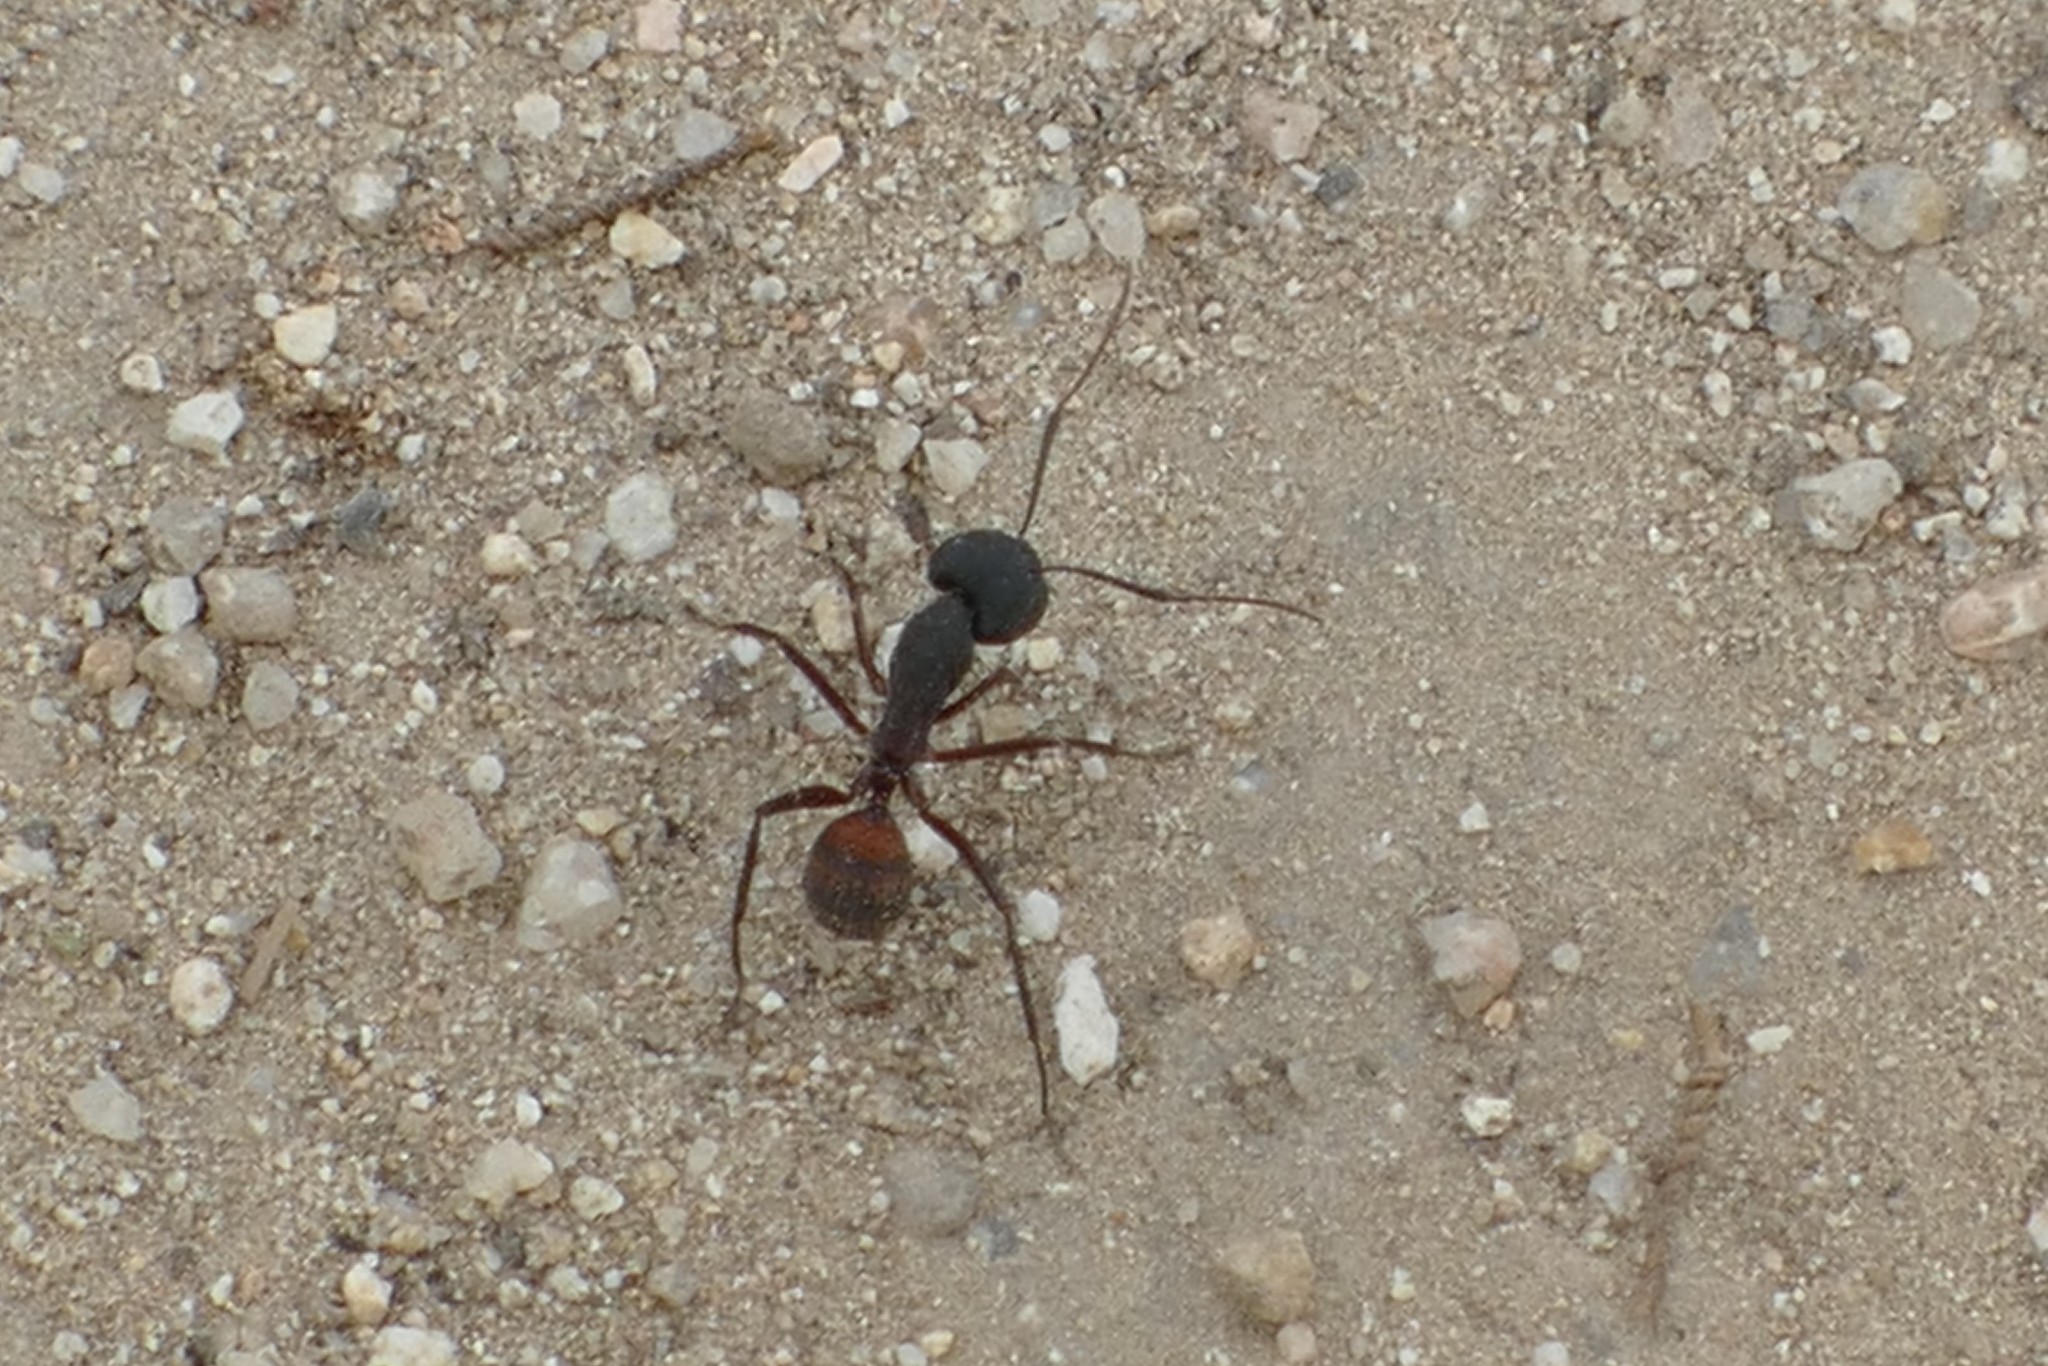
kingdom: Animalia
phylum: Arthropoda
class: Insecta
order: Hymenoptera
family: Formicidae
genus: Camponotus
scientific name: Camponotus cruentatus
